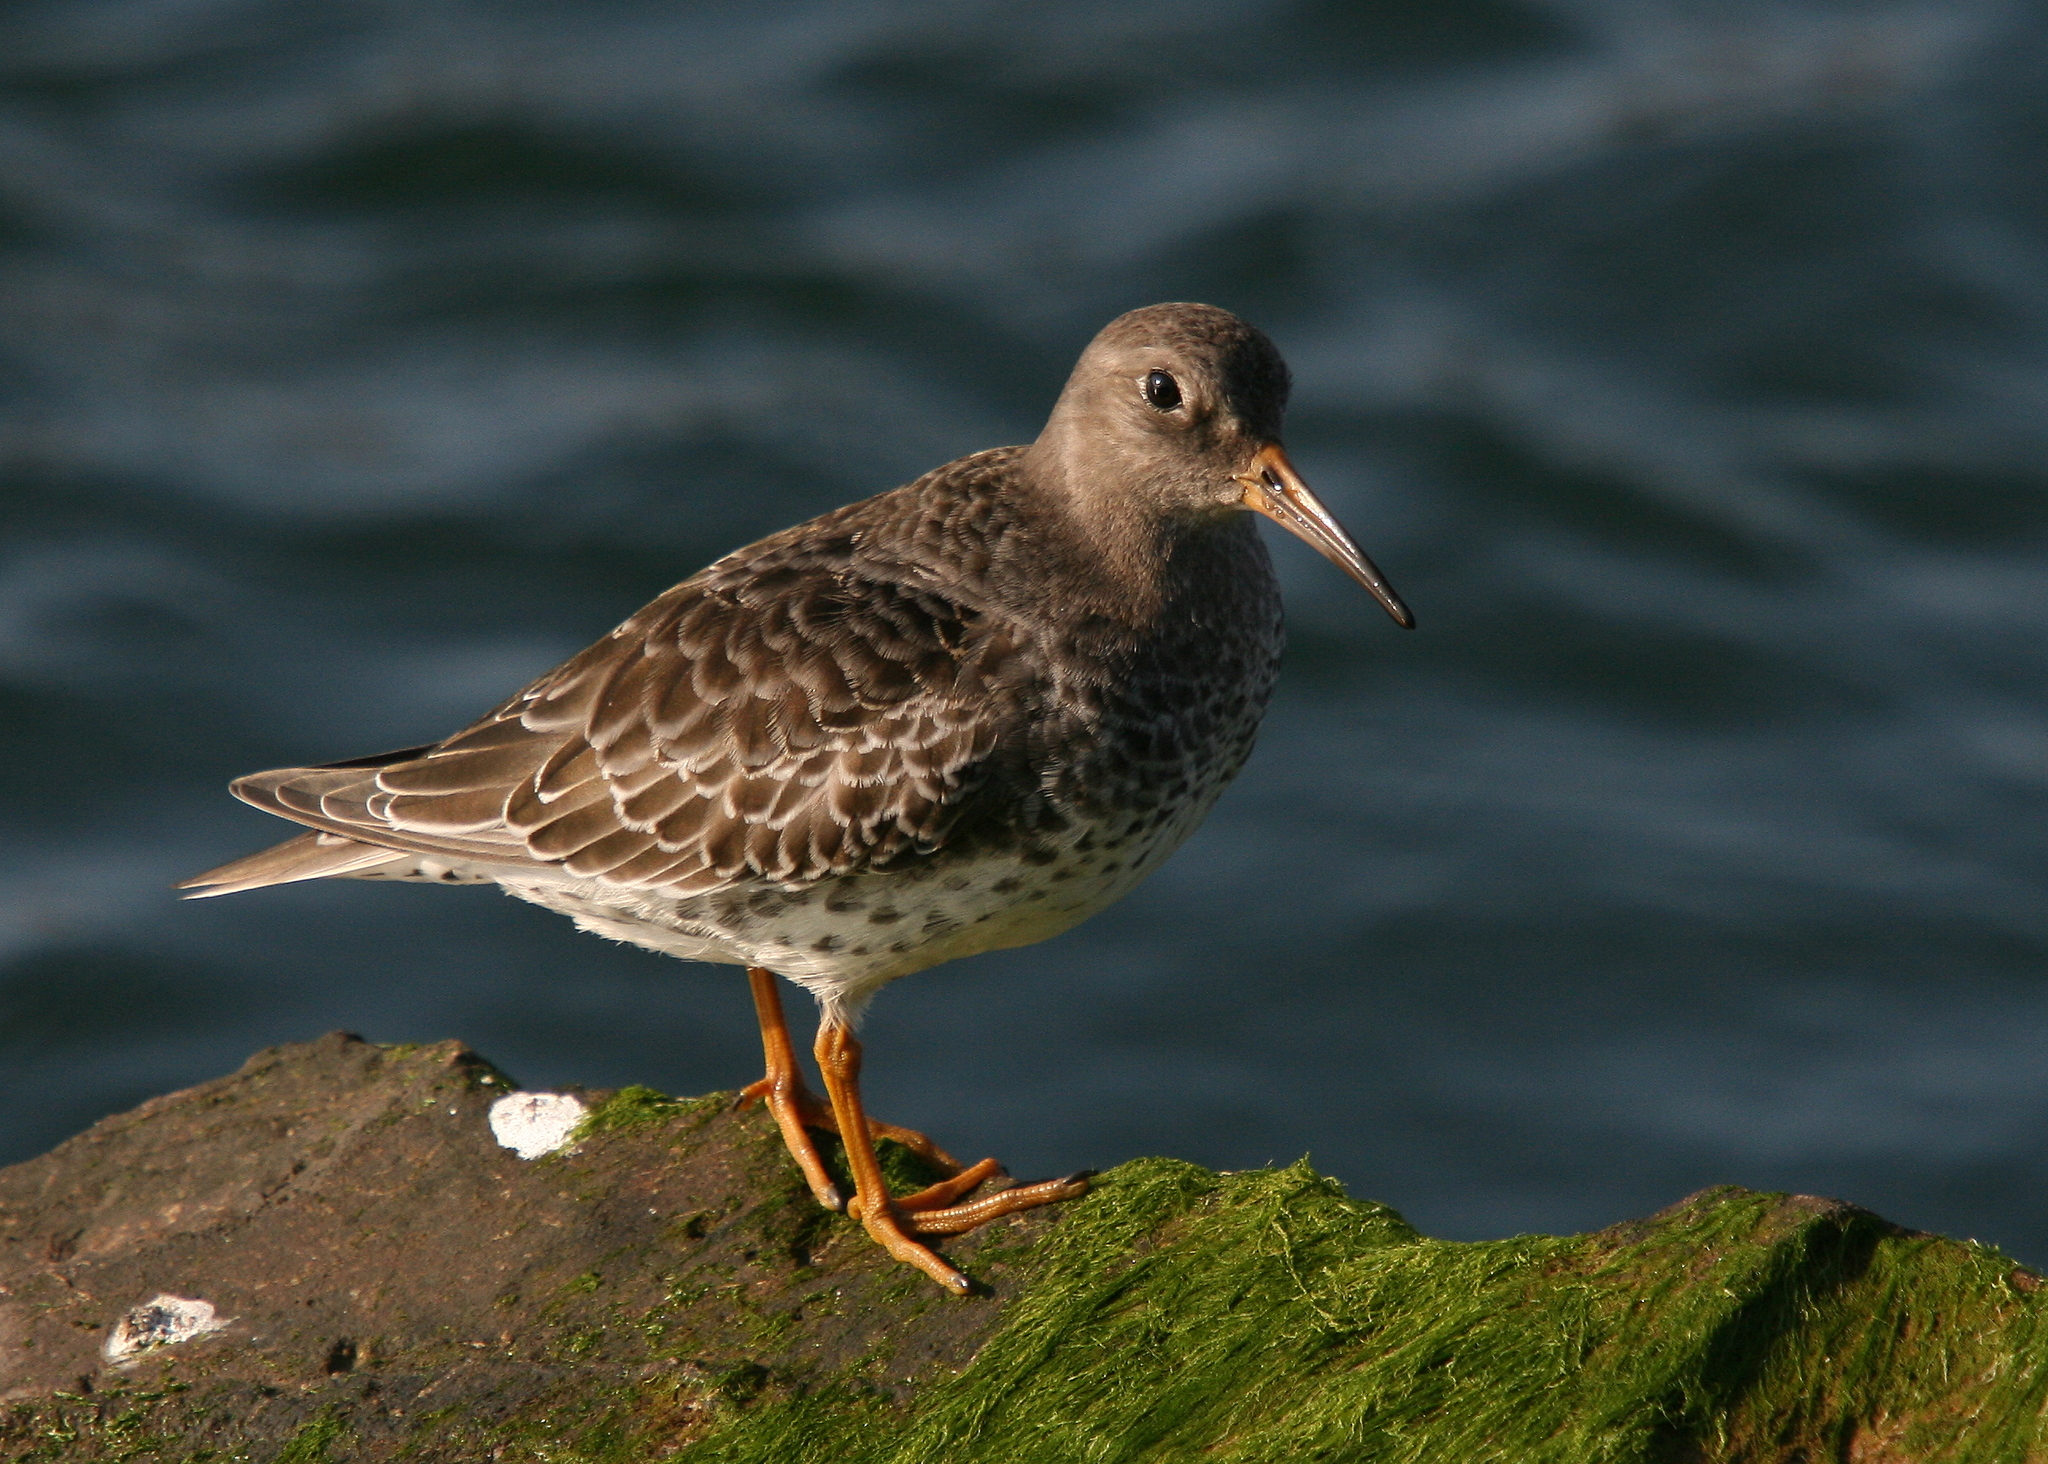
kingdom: Animalia
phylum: Chordata
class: Aves
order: Charadriiformes
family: Scolopacidae
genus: Calidris
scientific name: Calidris maritima
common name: Purple sandpiper
